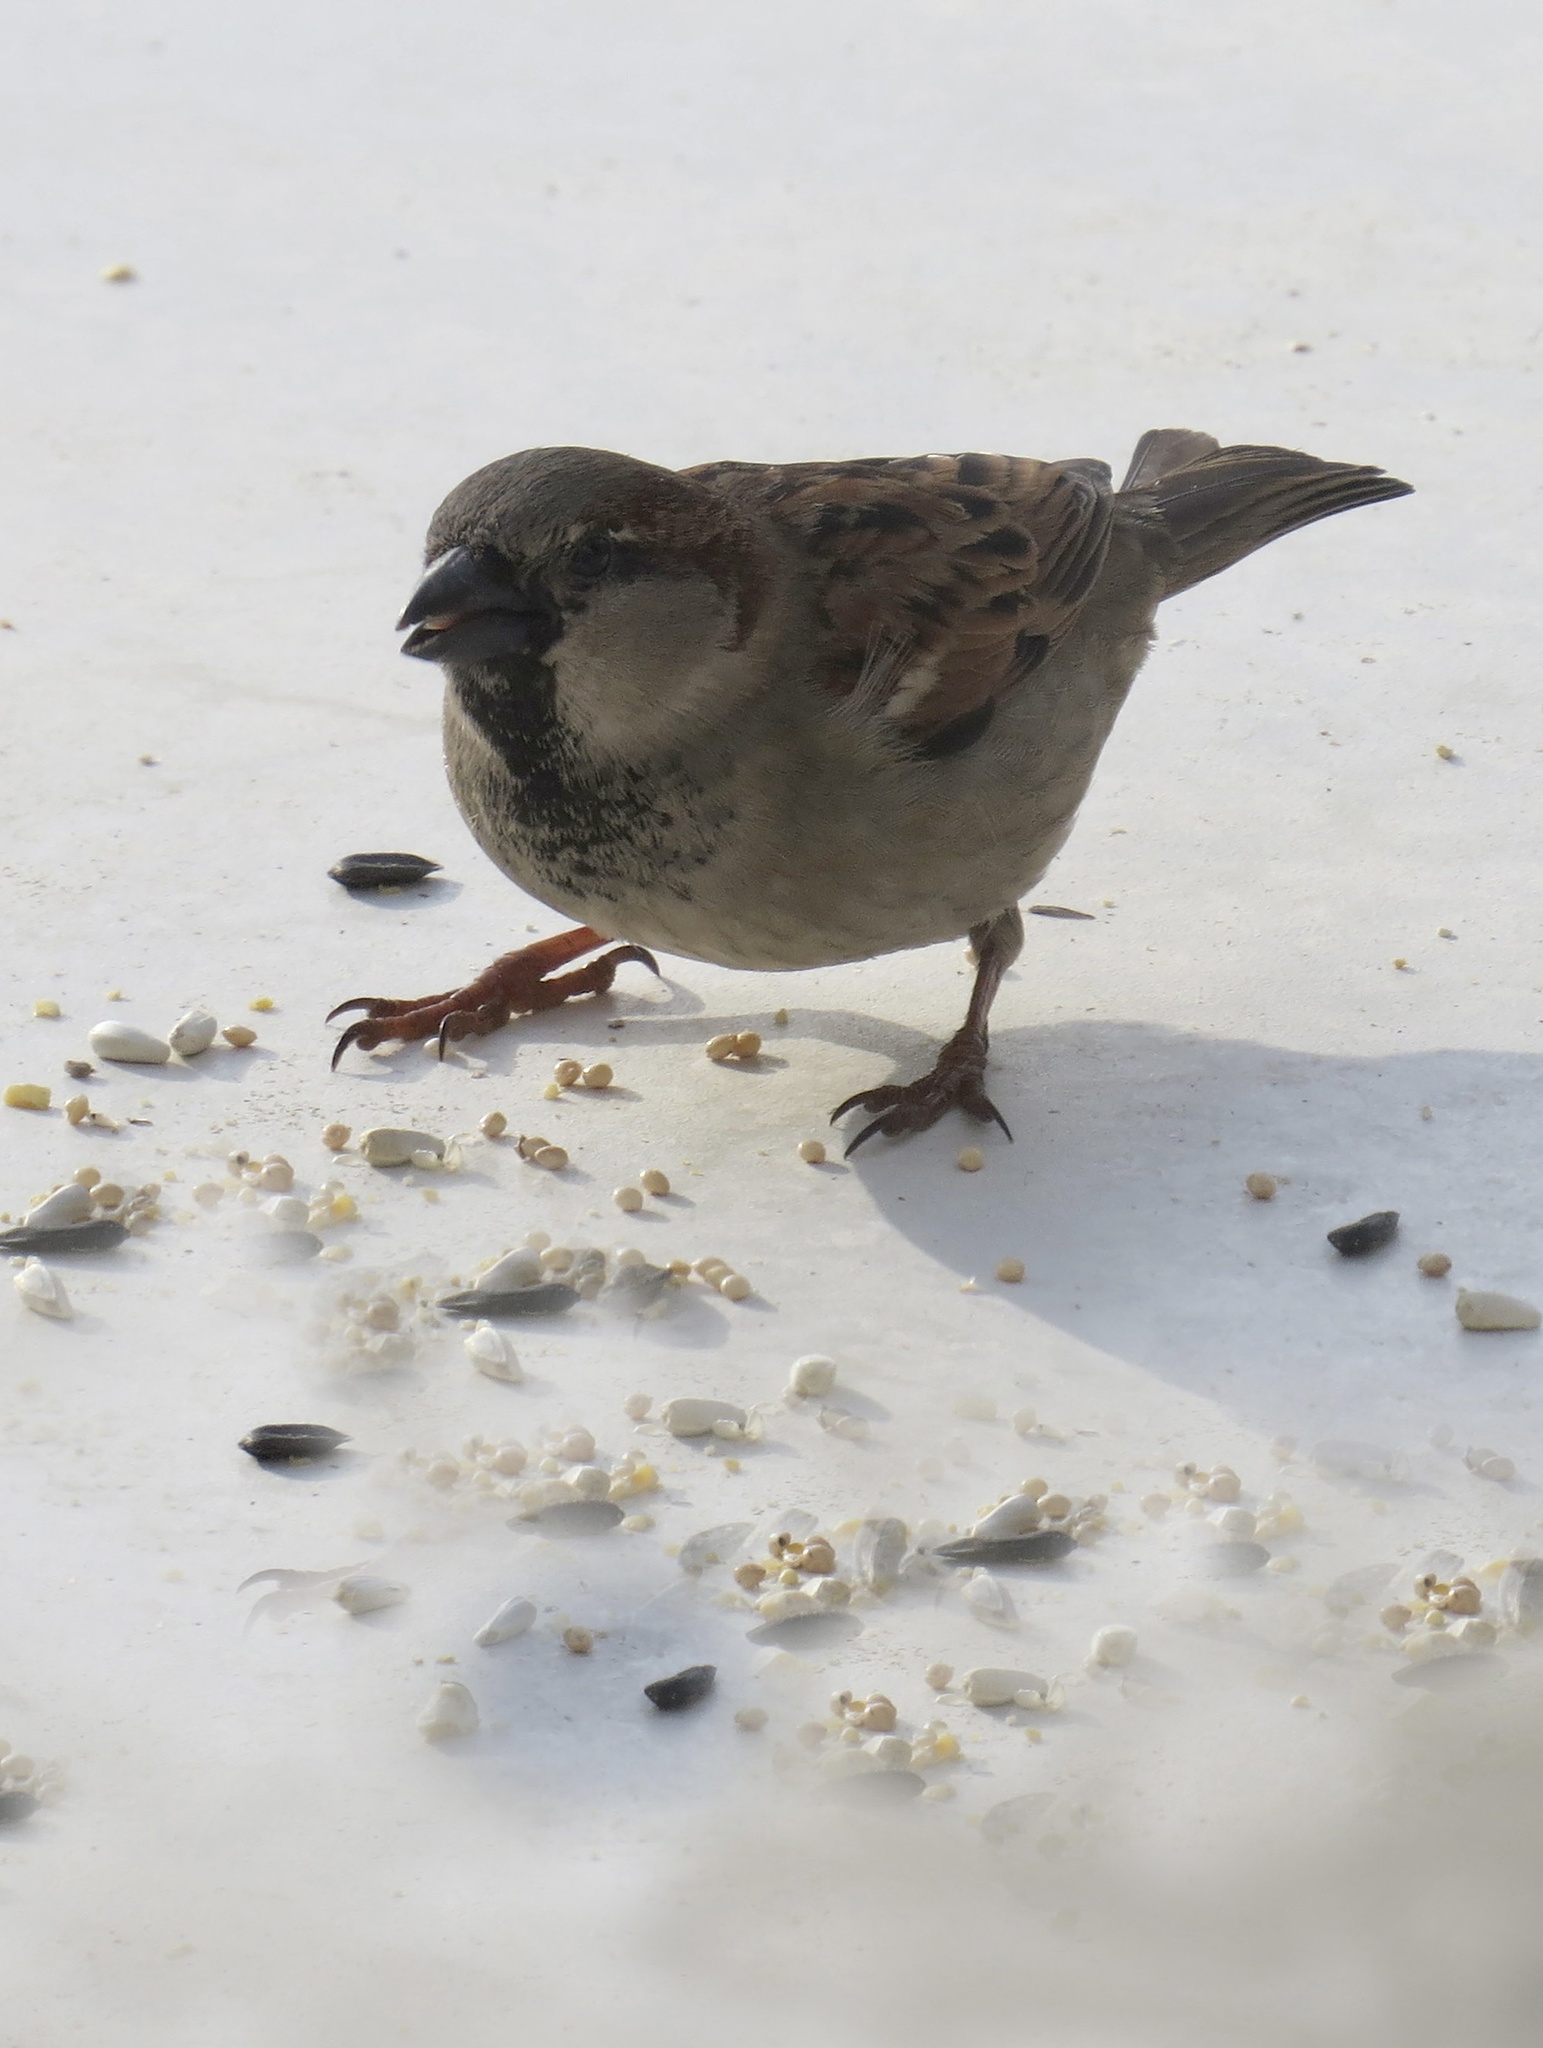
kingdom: Animalia
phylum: Chordata
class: Aves
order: Passeriformes
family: Passeridae
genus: Passer
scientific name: Passer domesticus
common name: House sparrow
